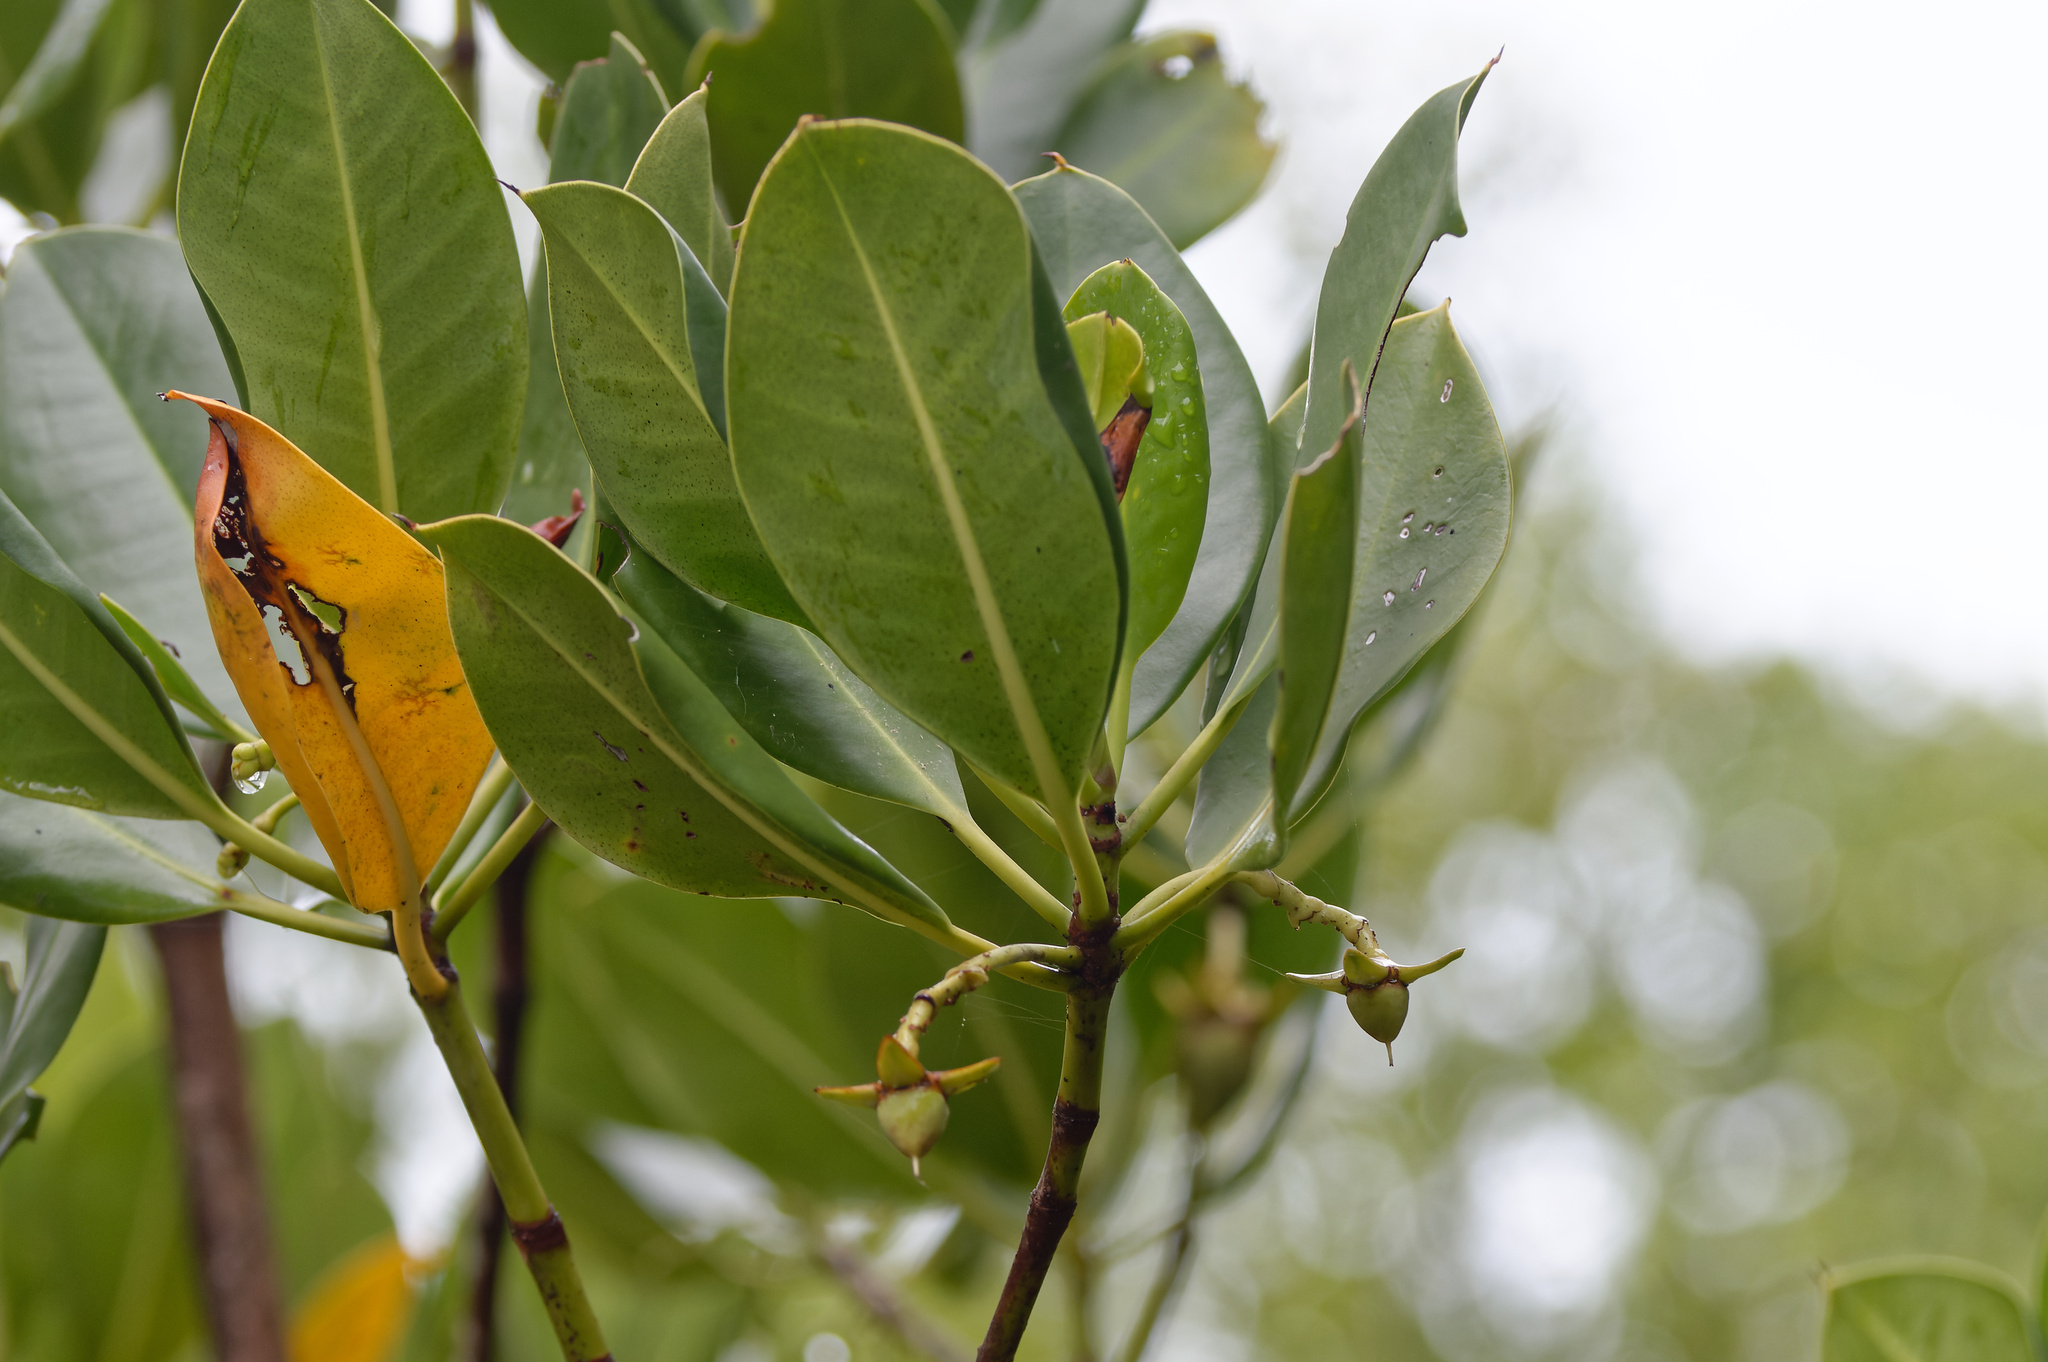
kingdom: Plantae
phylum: Tracheophyta
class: Magnoliopsida
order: Malpighiales
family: Rhizophoraceae
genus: Rhizophora
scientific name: Rhizophora stylosa
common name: Red mangrove
